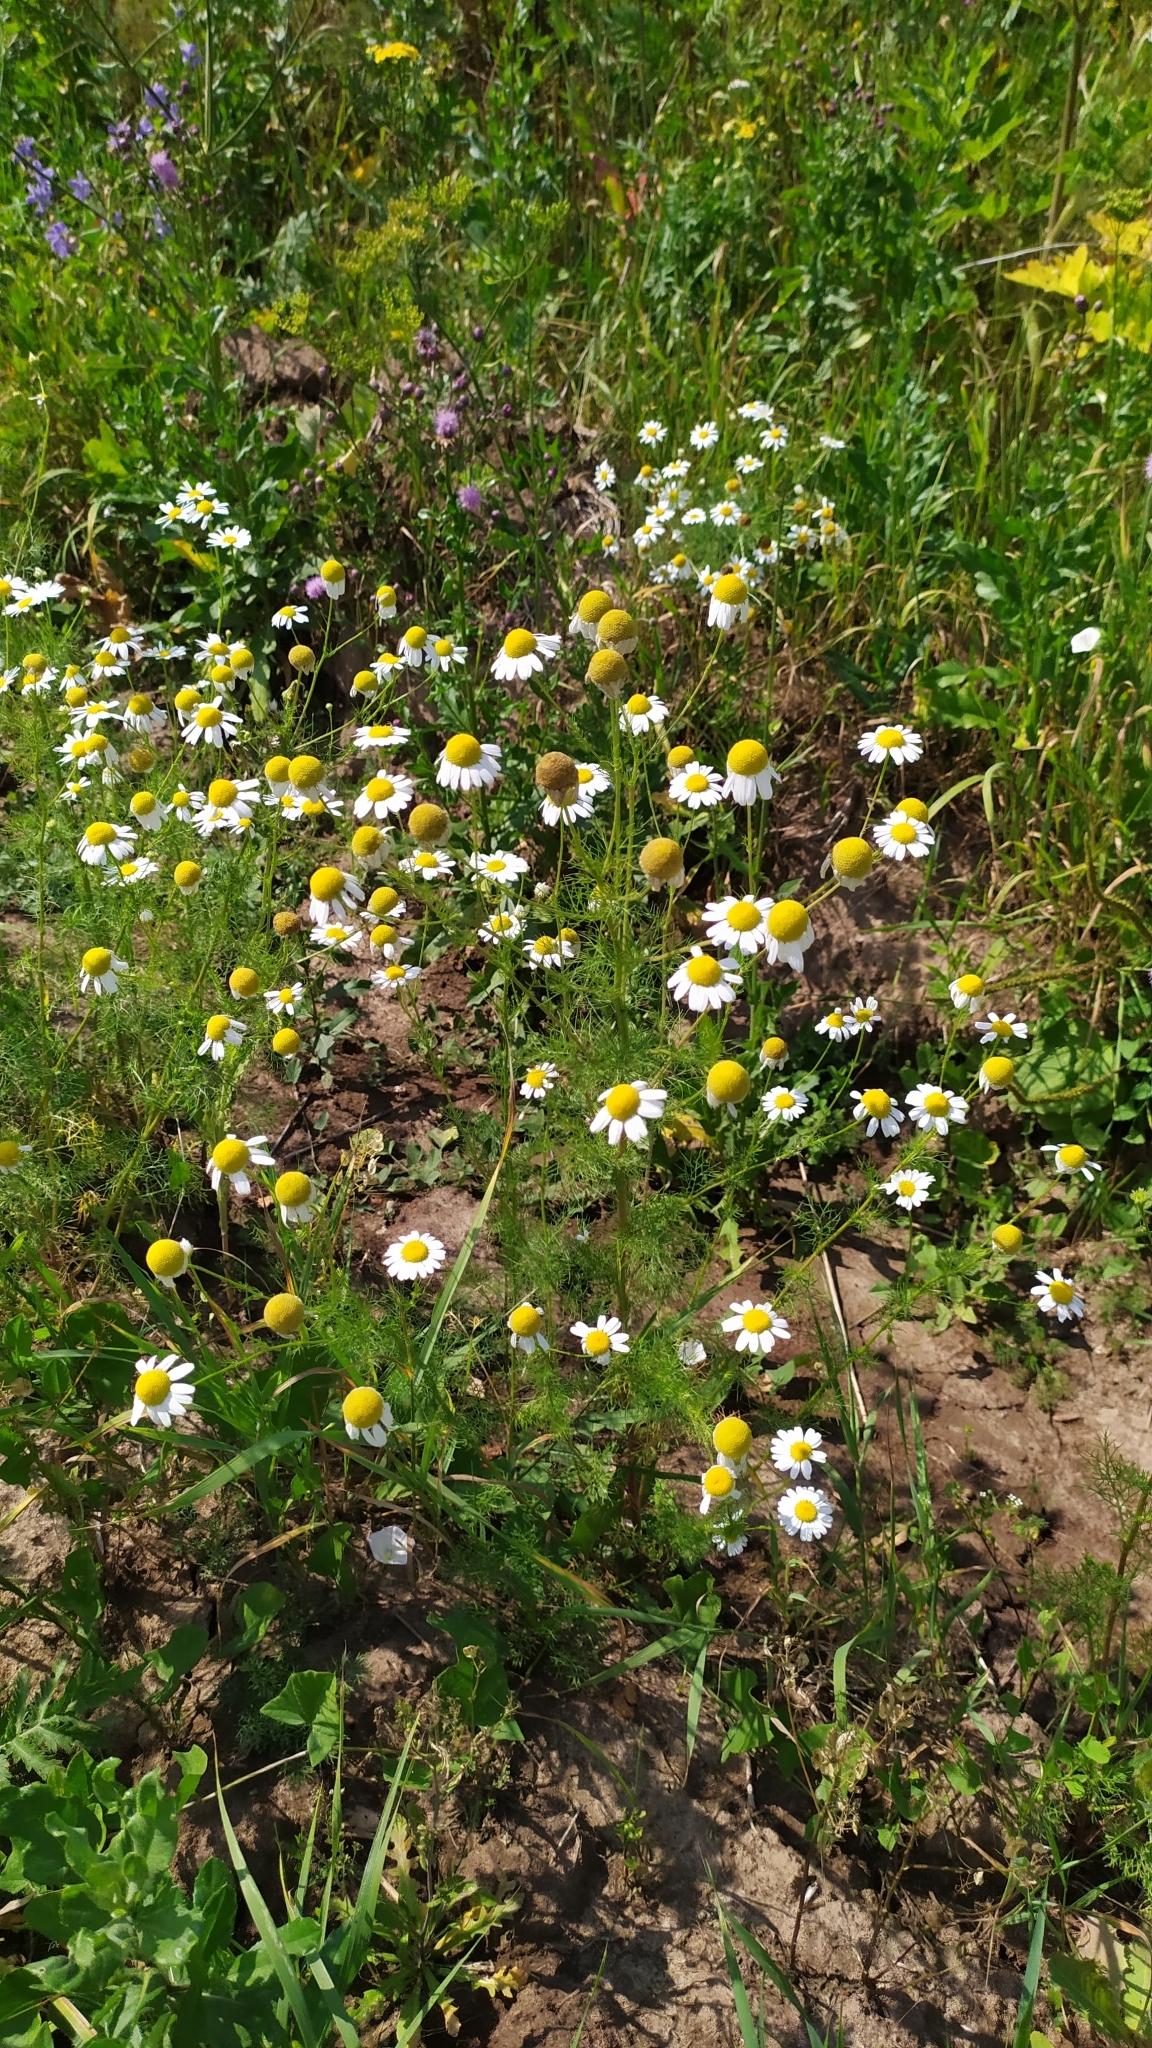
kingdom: Plantae
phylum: Tracheophyta
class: Magnoliopsida
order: Asterales
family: Asteraceae
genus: Tripleurospermum
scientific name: Tripleurospermum inodorum
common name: Scentless mayweed
